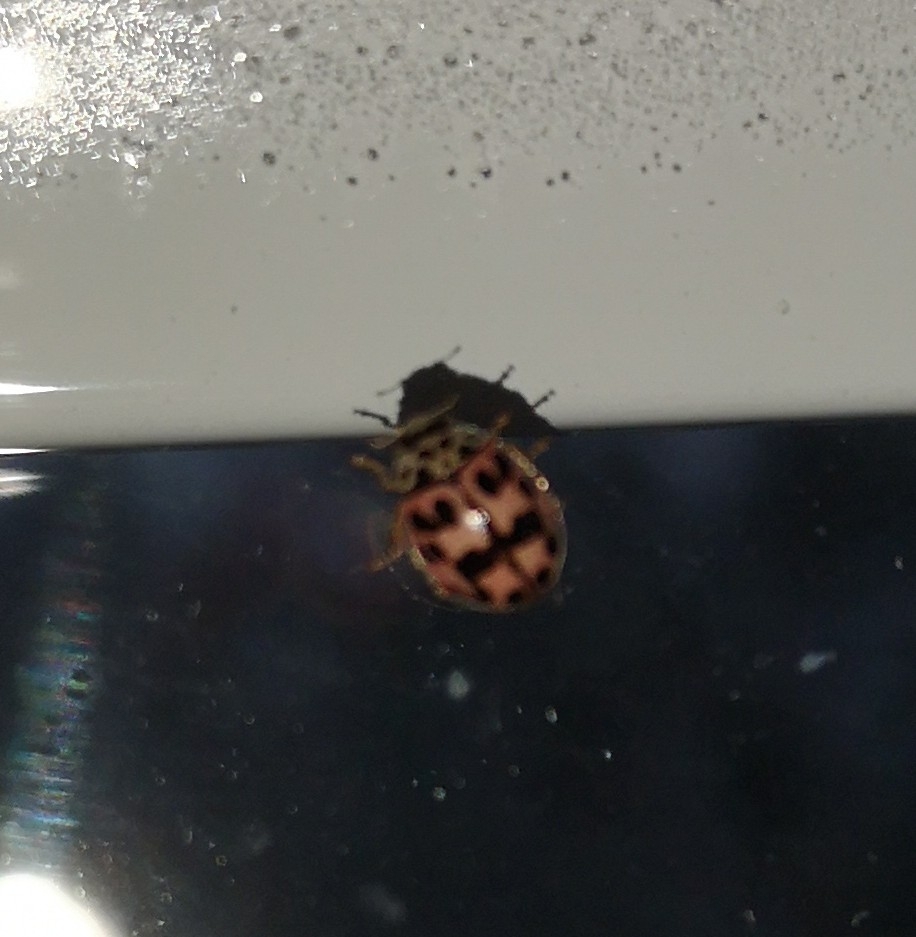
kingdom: Animalia
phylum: Arthropoda
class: Insecta
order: Coleoptera
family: Coccinellidae
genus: Oenopia
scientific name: Oenopia conglobata
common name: Ladybird beetle
